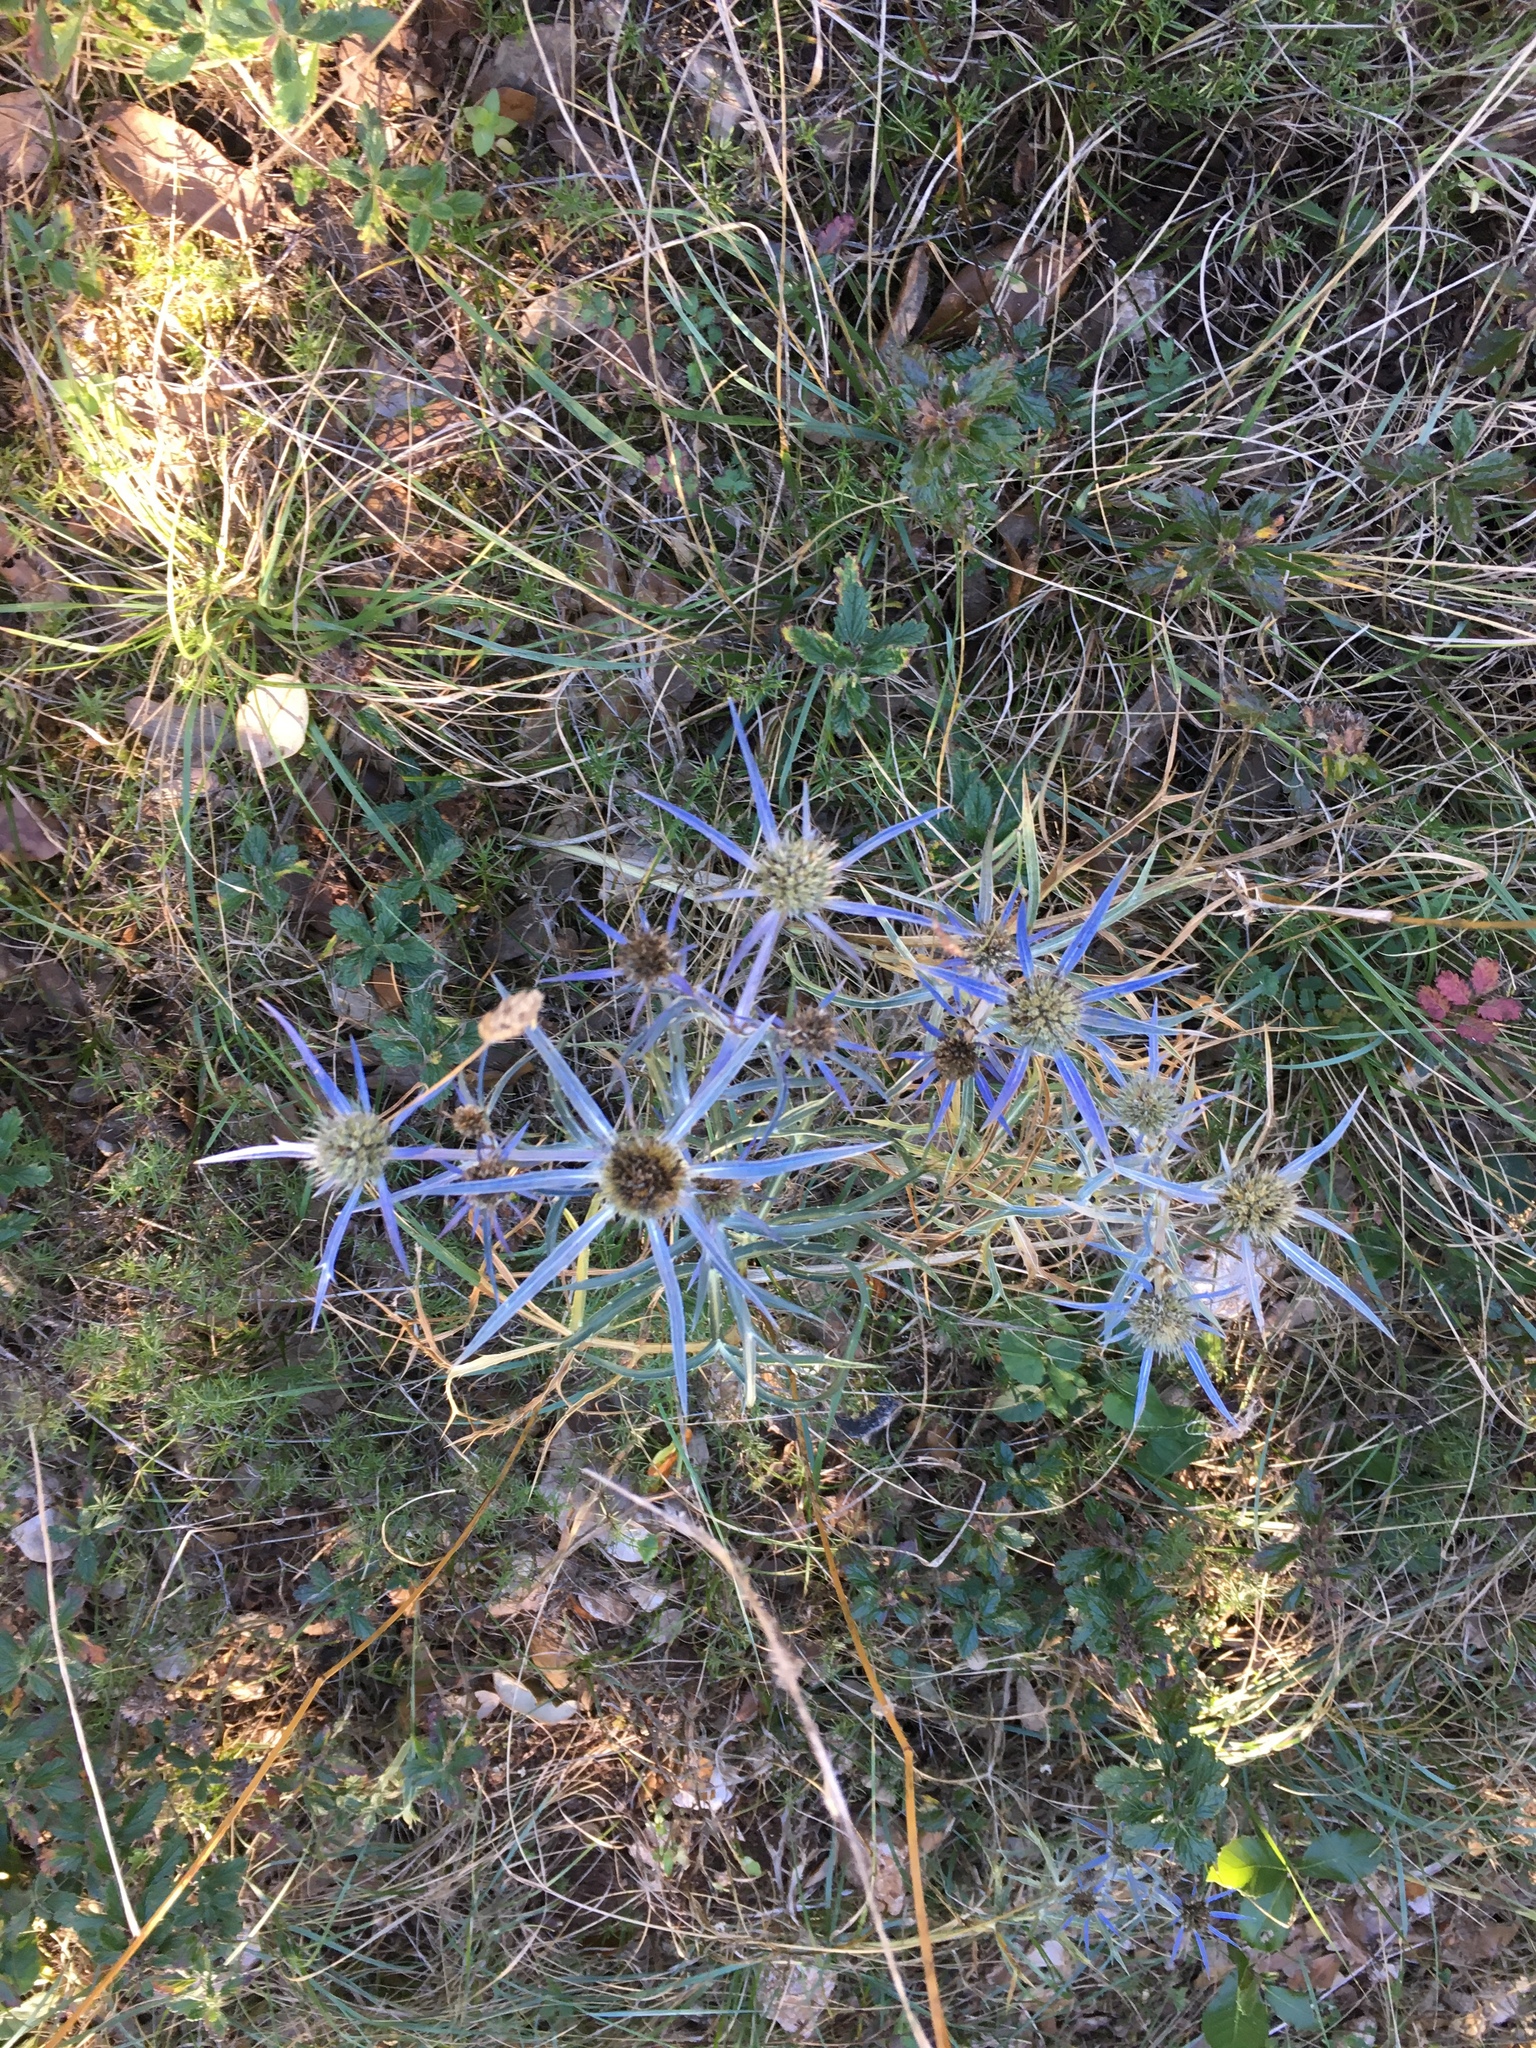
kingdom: Plantae
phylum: Tracheophyta
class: Magnoliopsida
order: Apiales
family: Apiaceae
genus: Eryngium
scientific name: Eryngium amethystinum
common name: Amethyst eryngo
